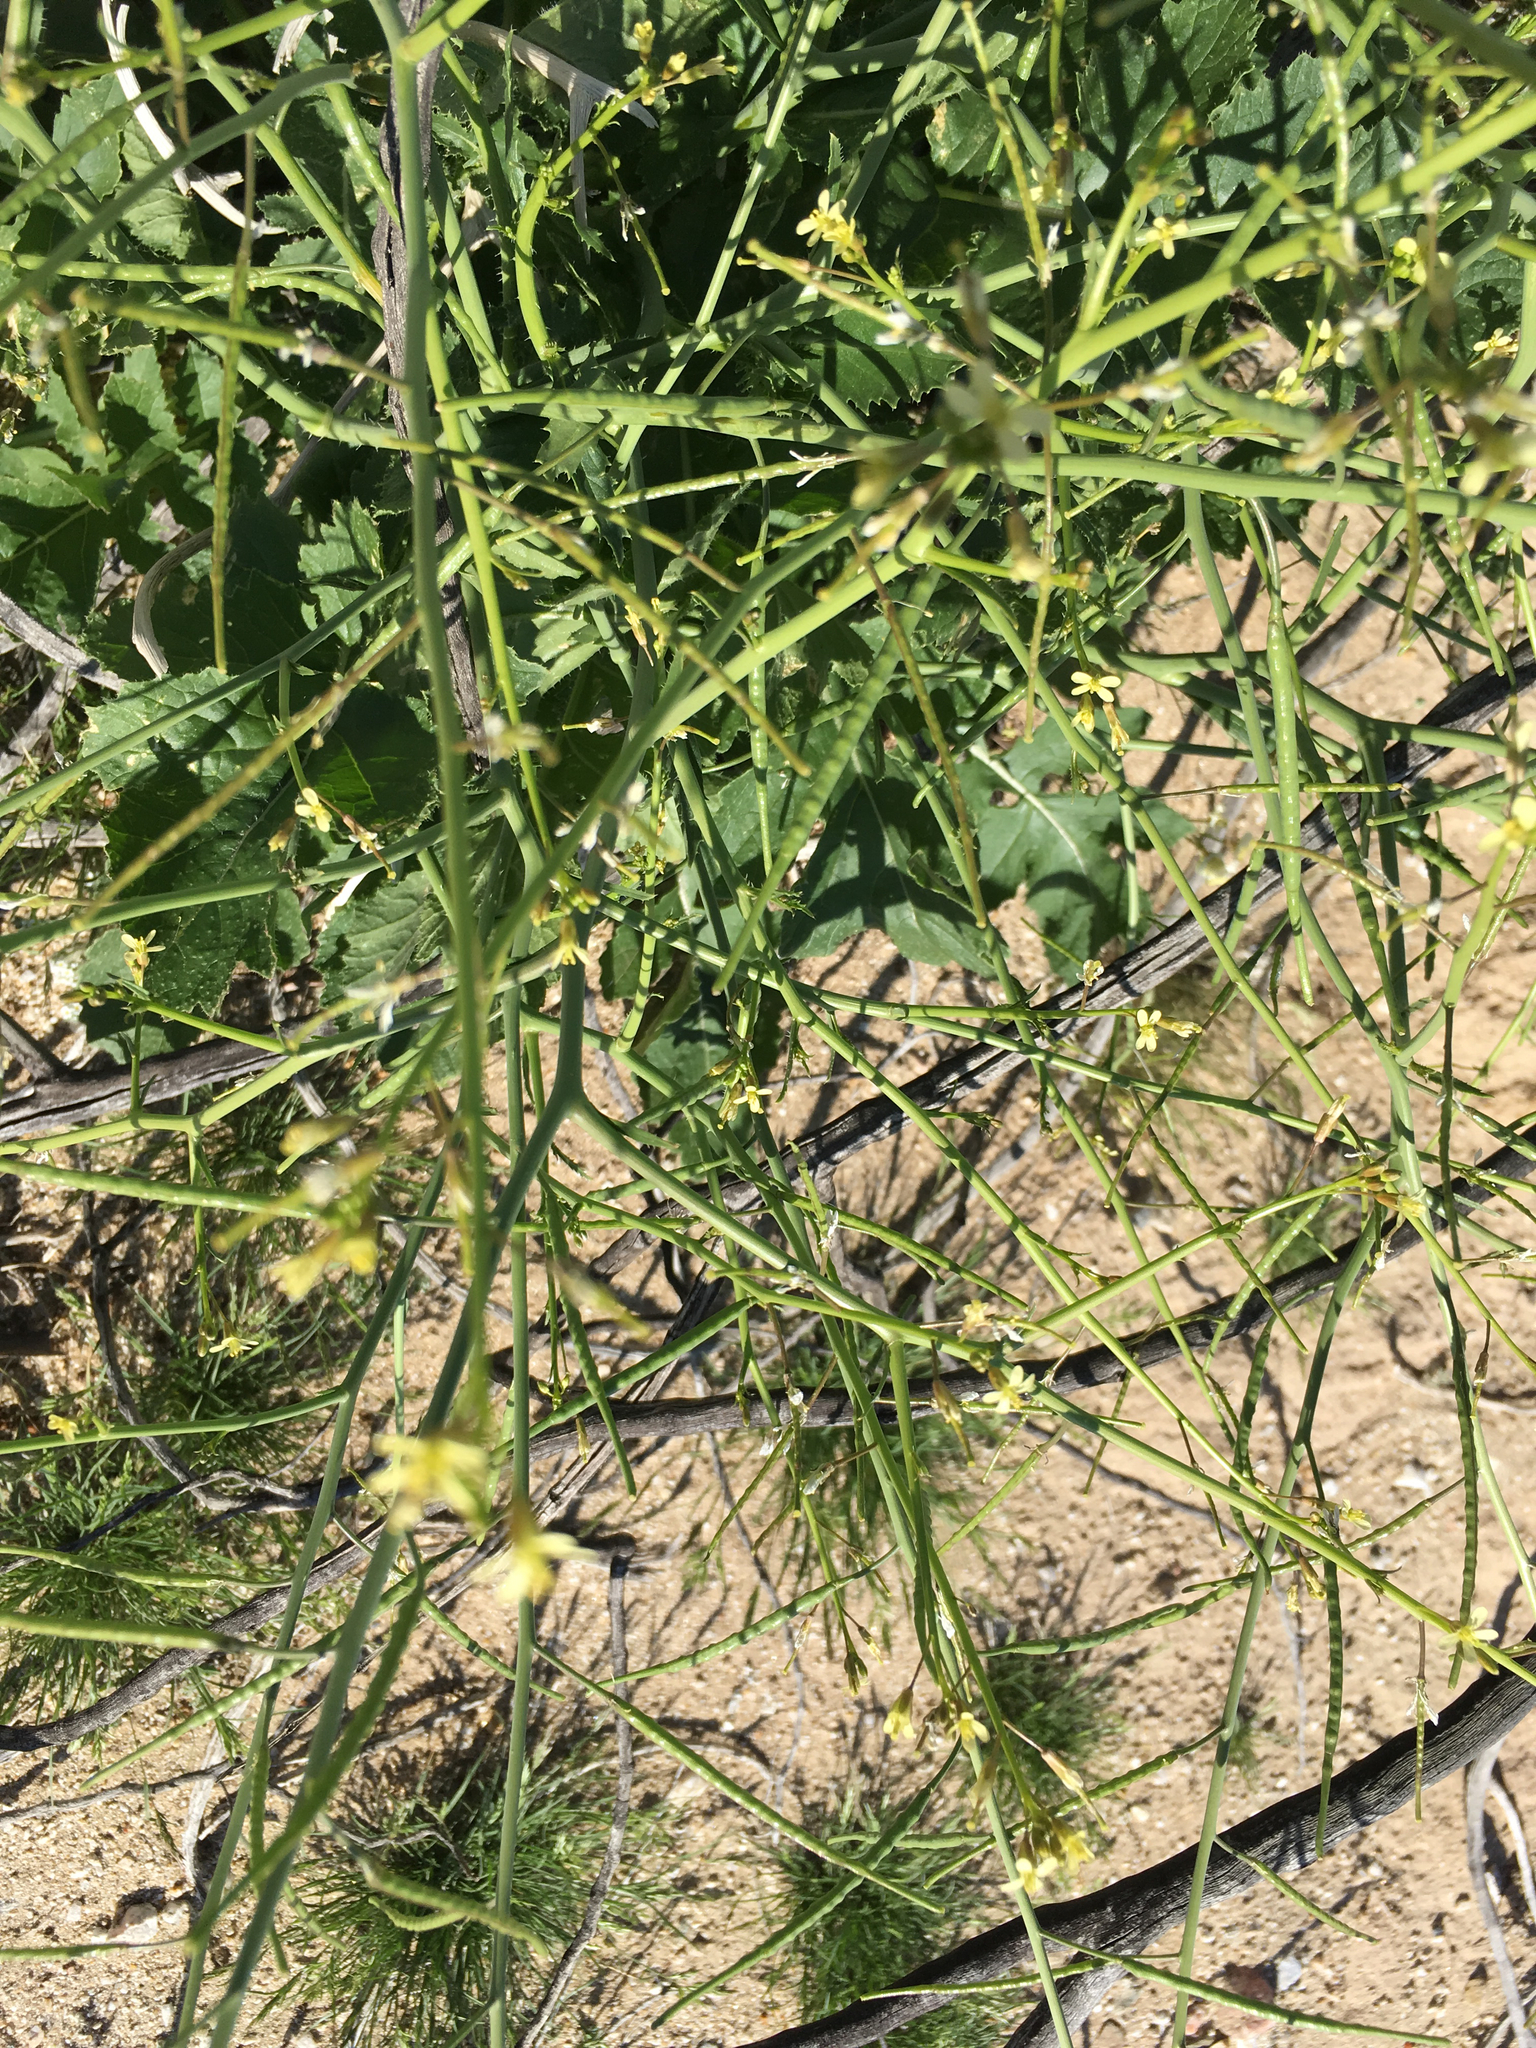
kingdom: Plantae
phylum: Tracheophyta
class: Magnoliopsida
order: Brassicales
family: Brassicaceae
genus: Brassica
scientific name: Brassica tournefortii
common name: Pale cabbage
